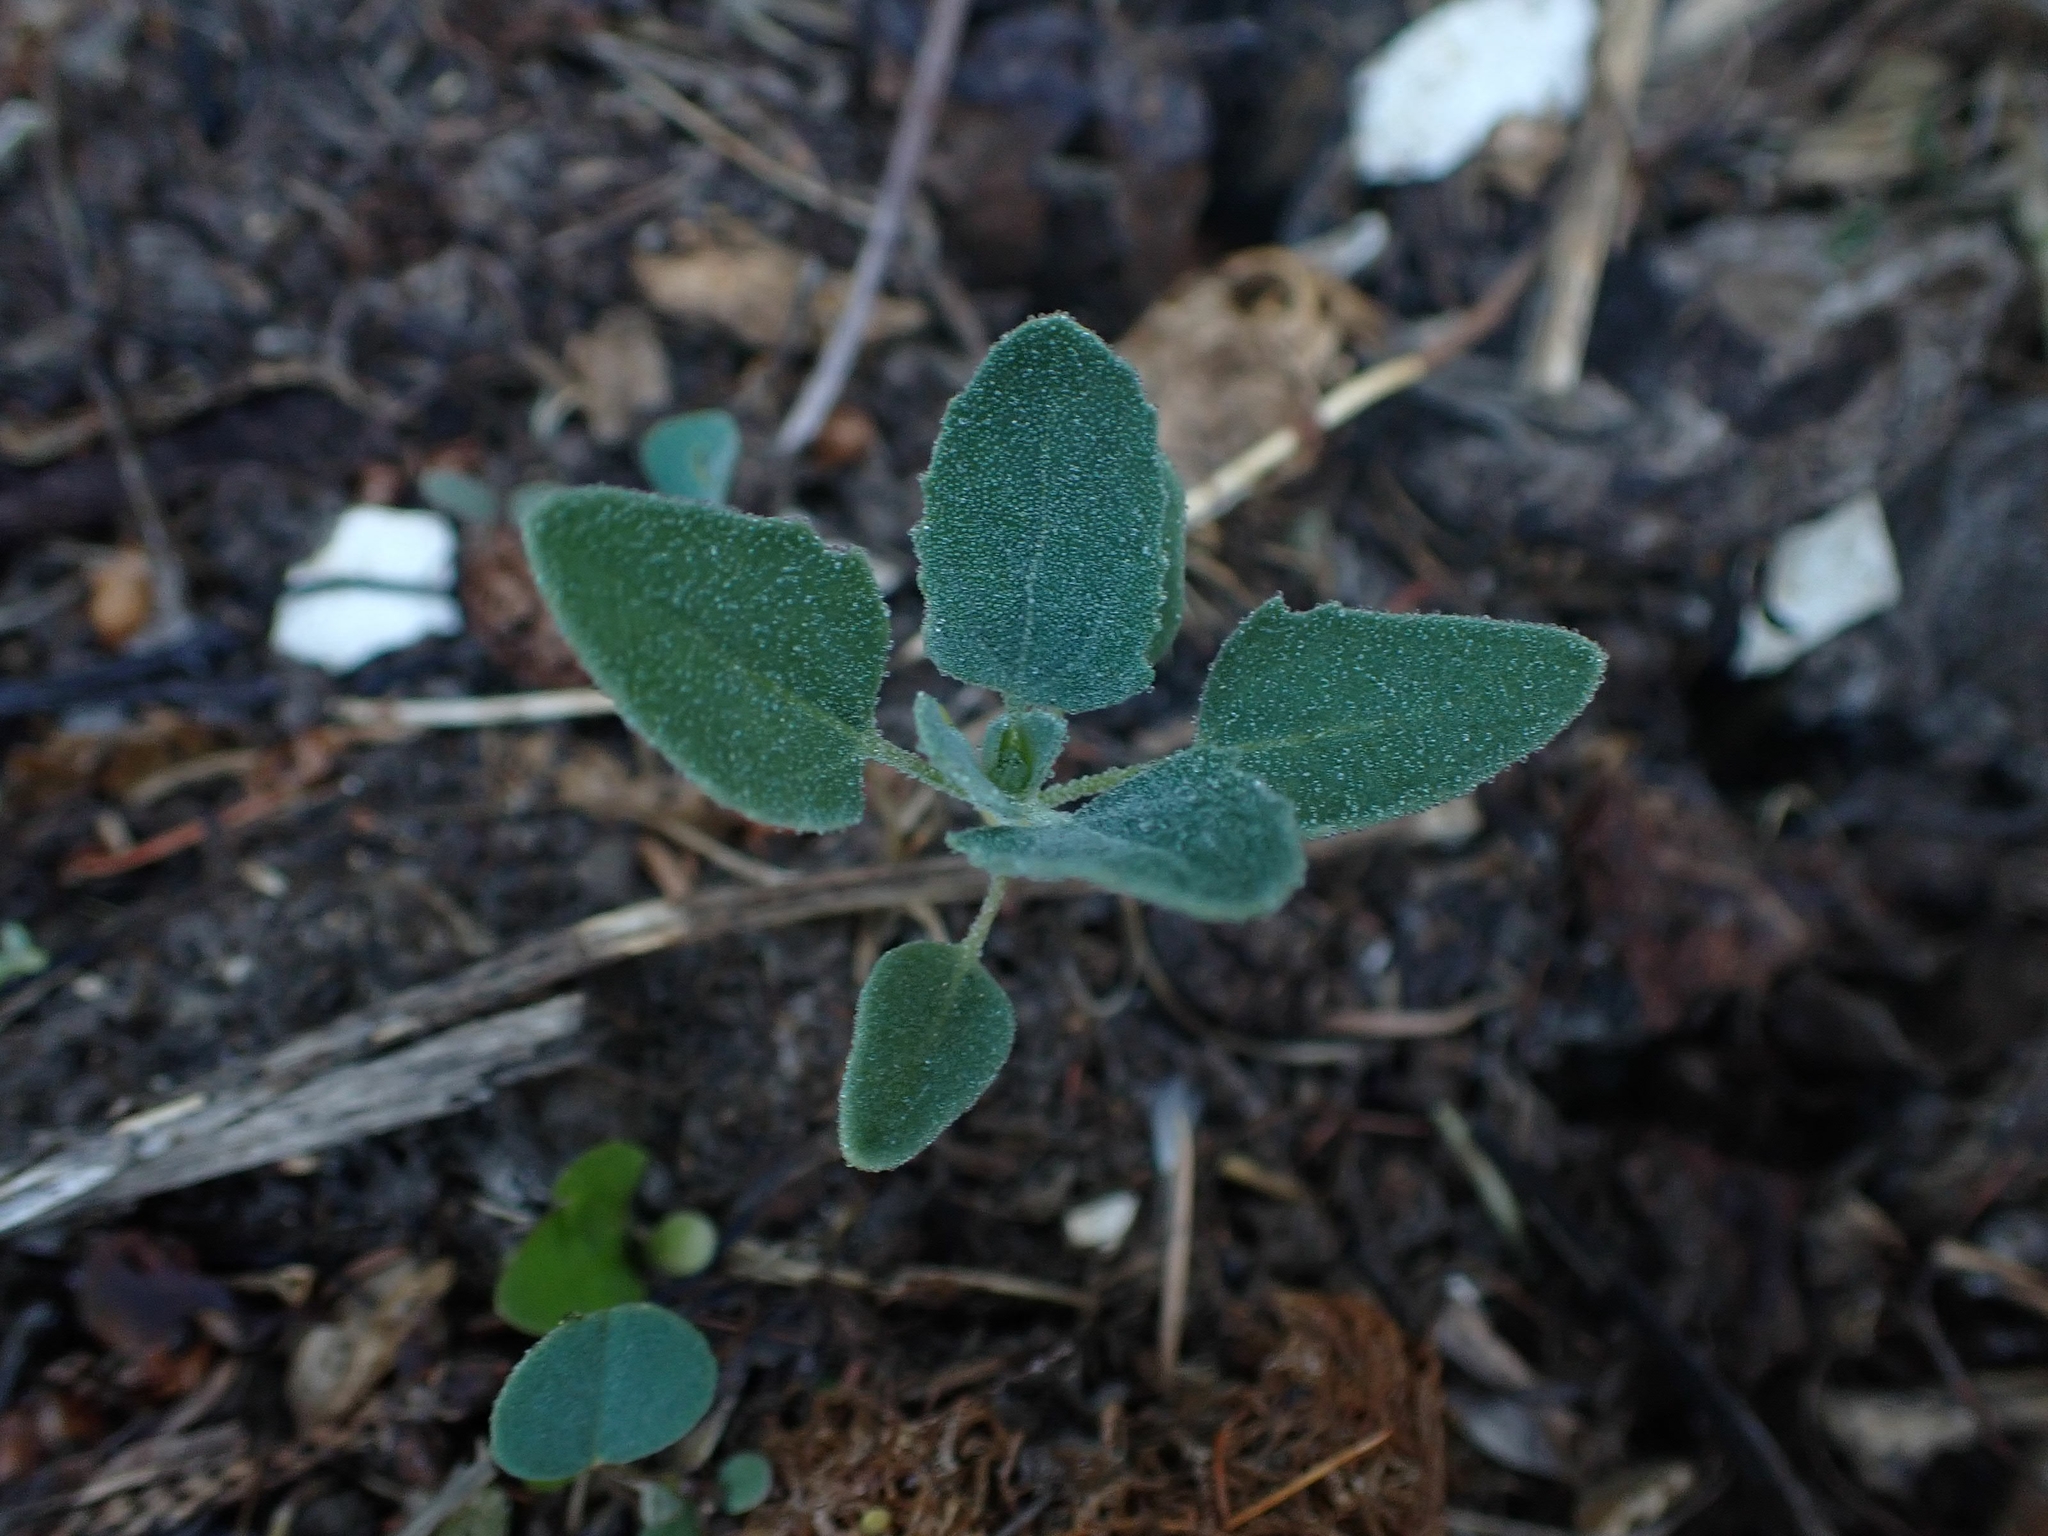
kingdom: Plantae
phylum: Tracheophyta
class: Magnoliopsida
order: Caryophyllales
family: Amaranthaceae
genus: Chenopodium
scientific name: Chenopodium album
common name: Fat-hen
